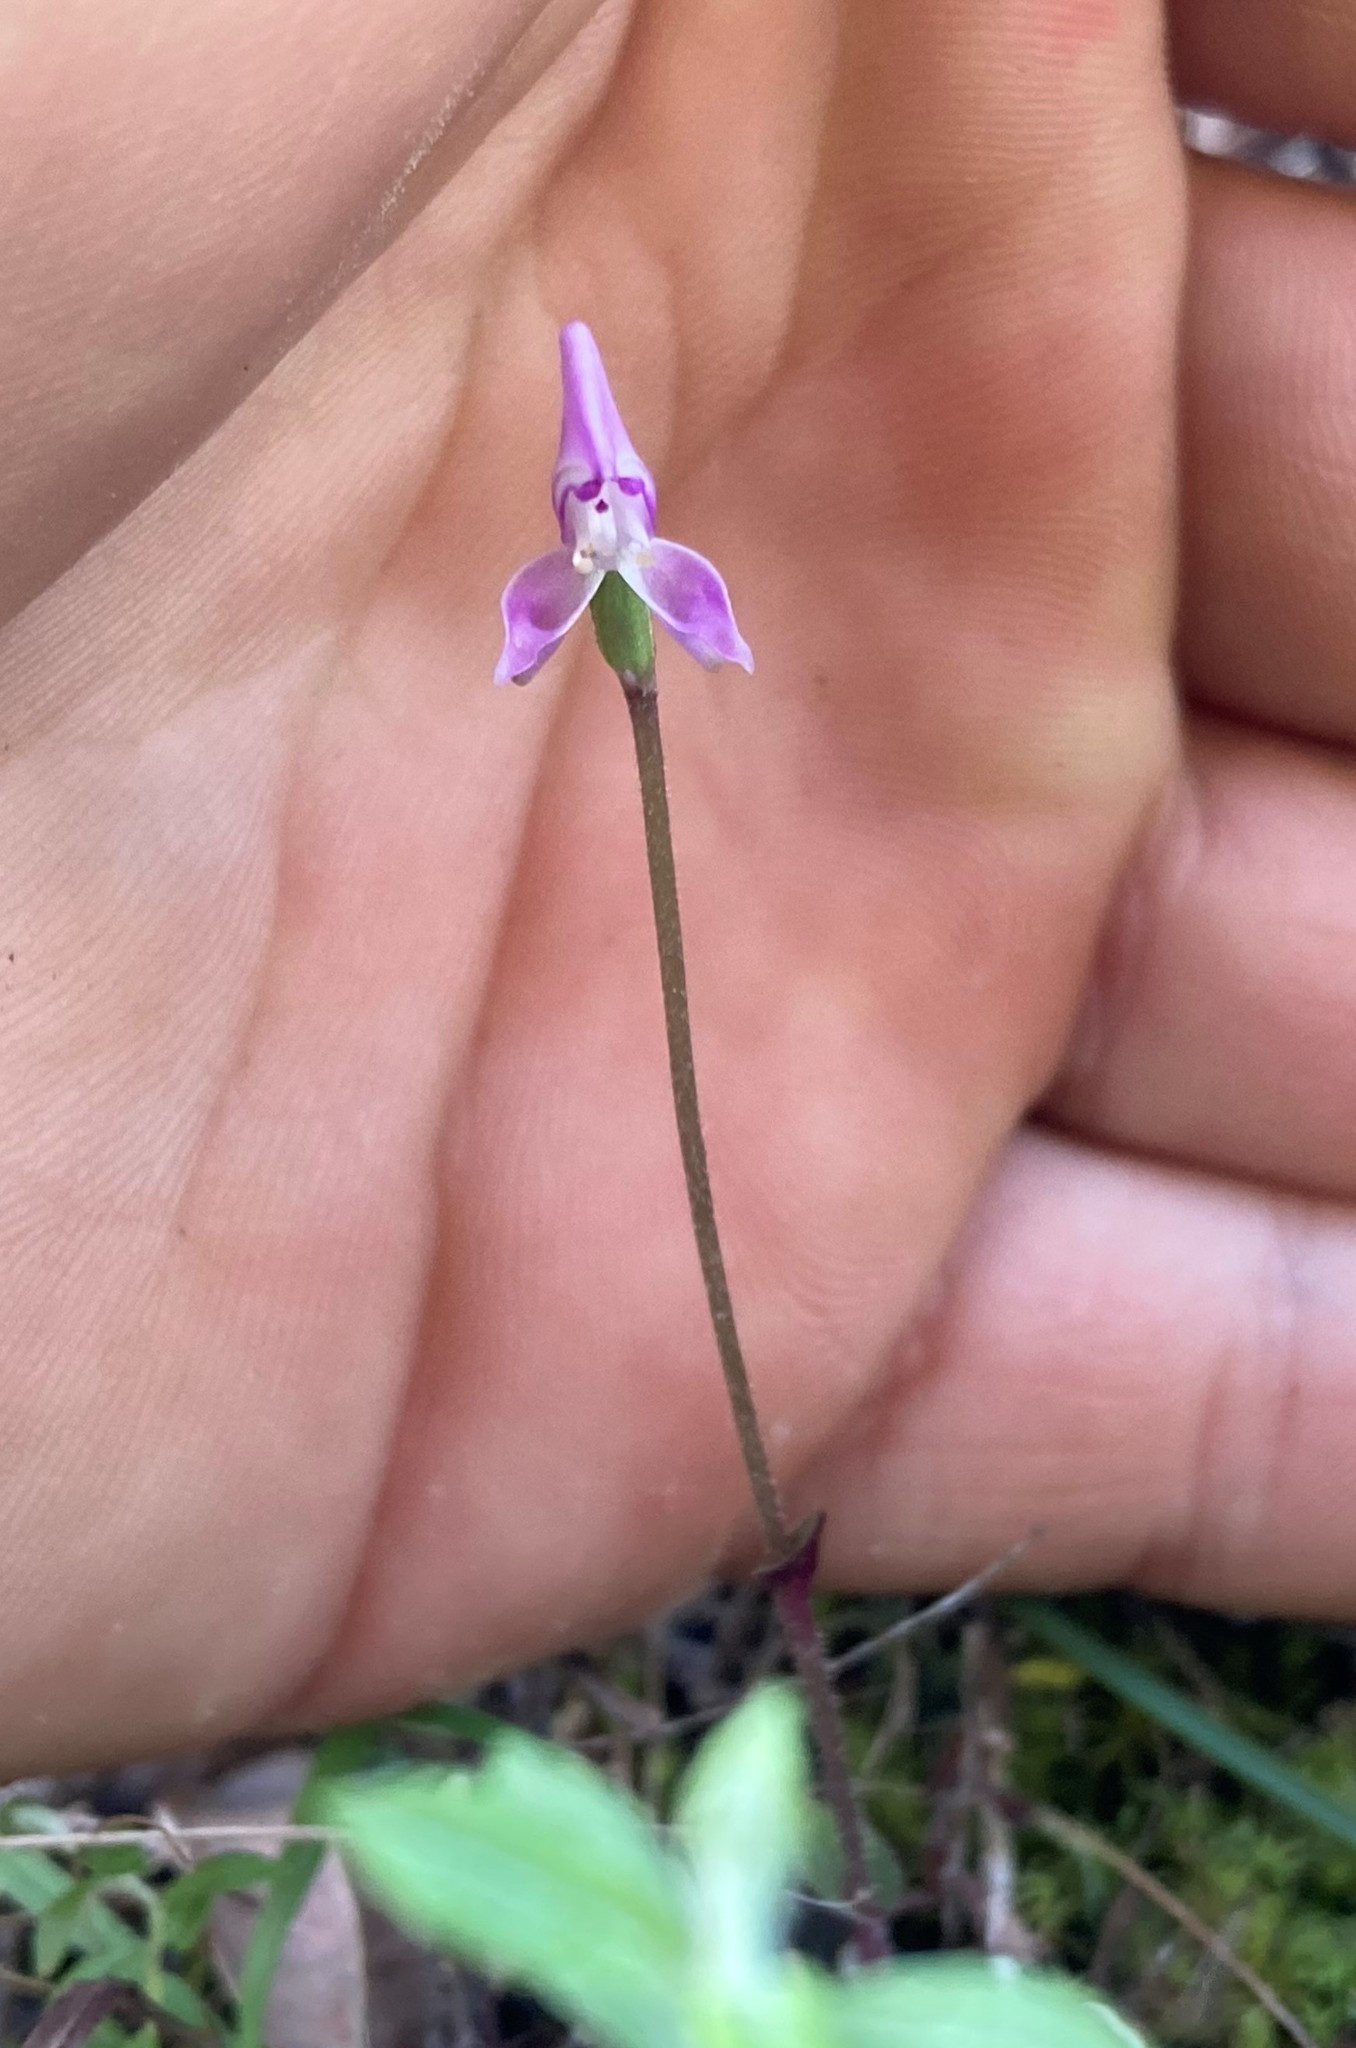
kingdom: Plantae
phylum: Tracheophyta
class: Liliopsida
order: Asparagales
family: Orchidaceae
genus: Disperis
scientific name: Disperis macowanii
